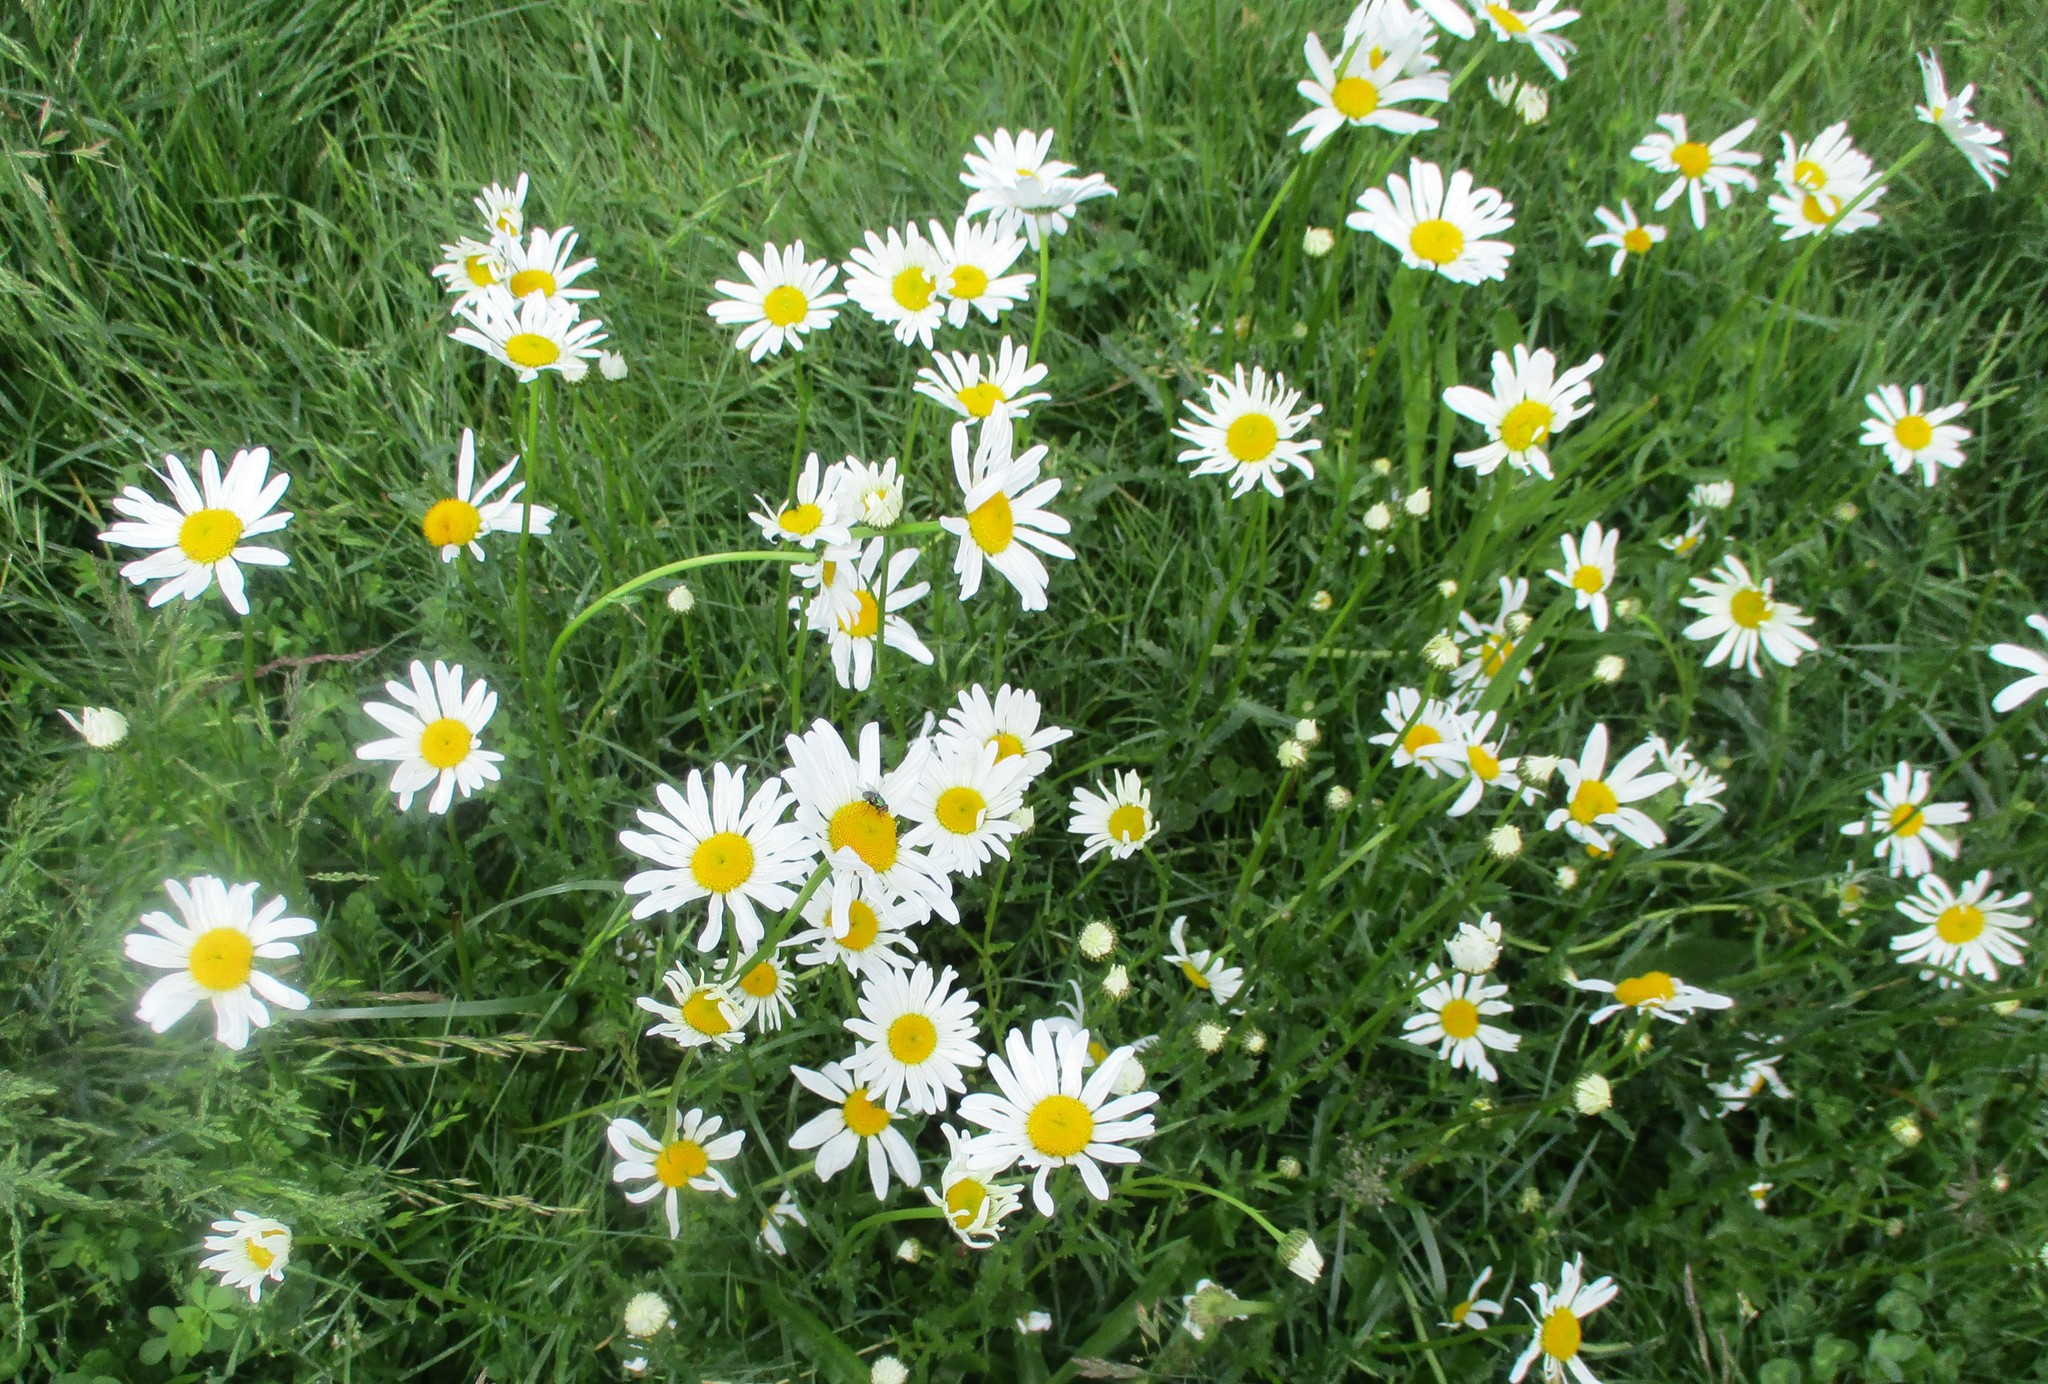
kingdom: Plantae
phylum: Tracheophyta
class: Magnoliopsida
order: Asterales
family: Asteraceae
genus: Leucanthemum
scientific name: Leucanthemum maximum
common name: Max chrysanthemum
